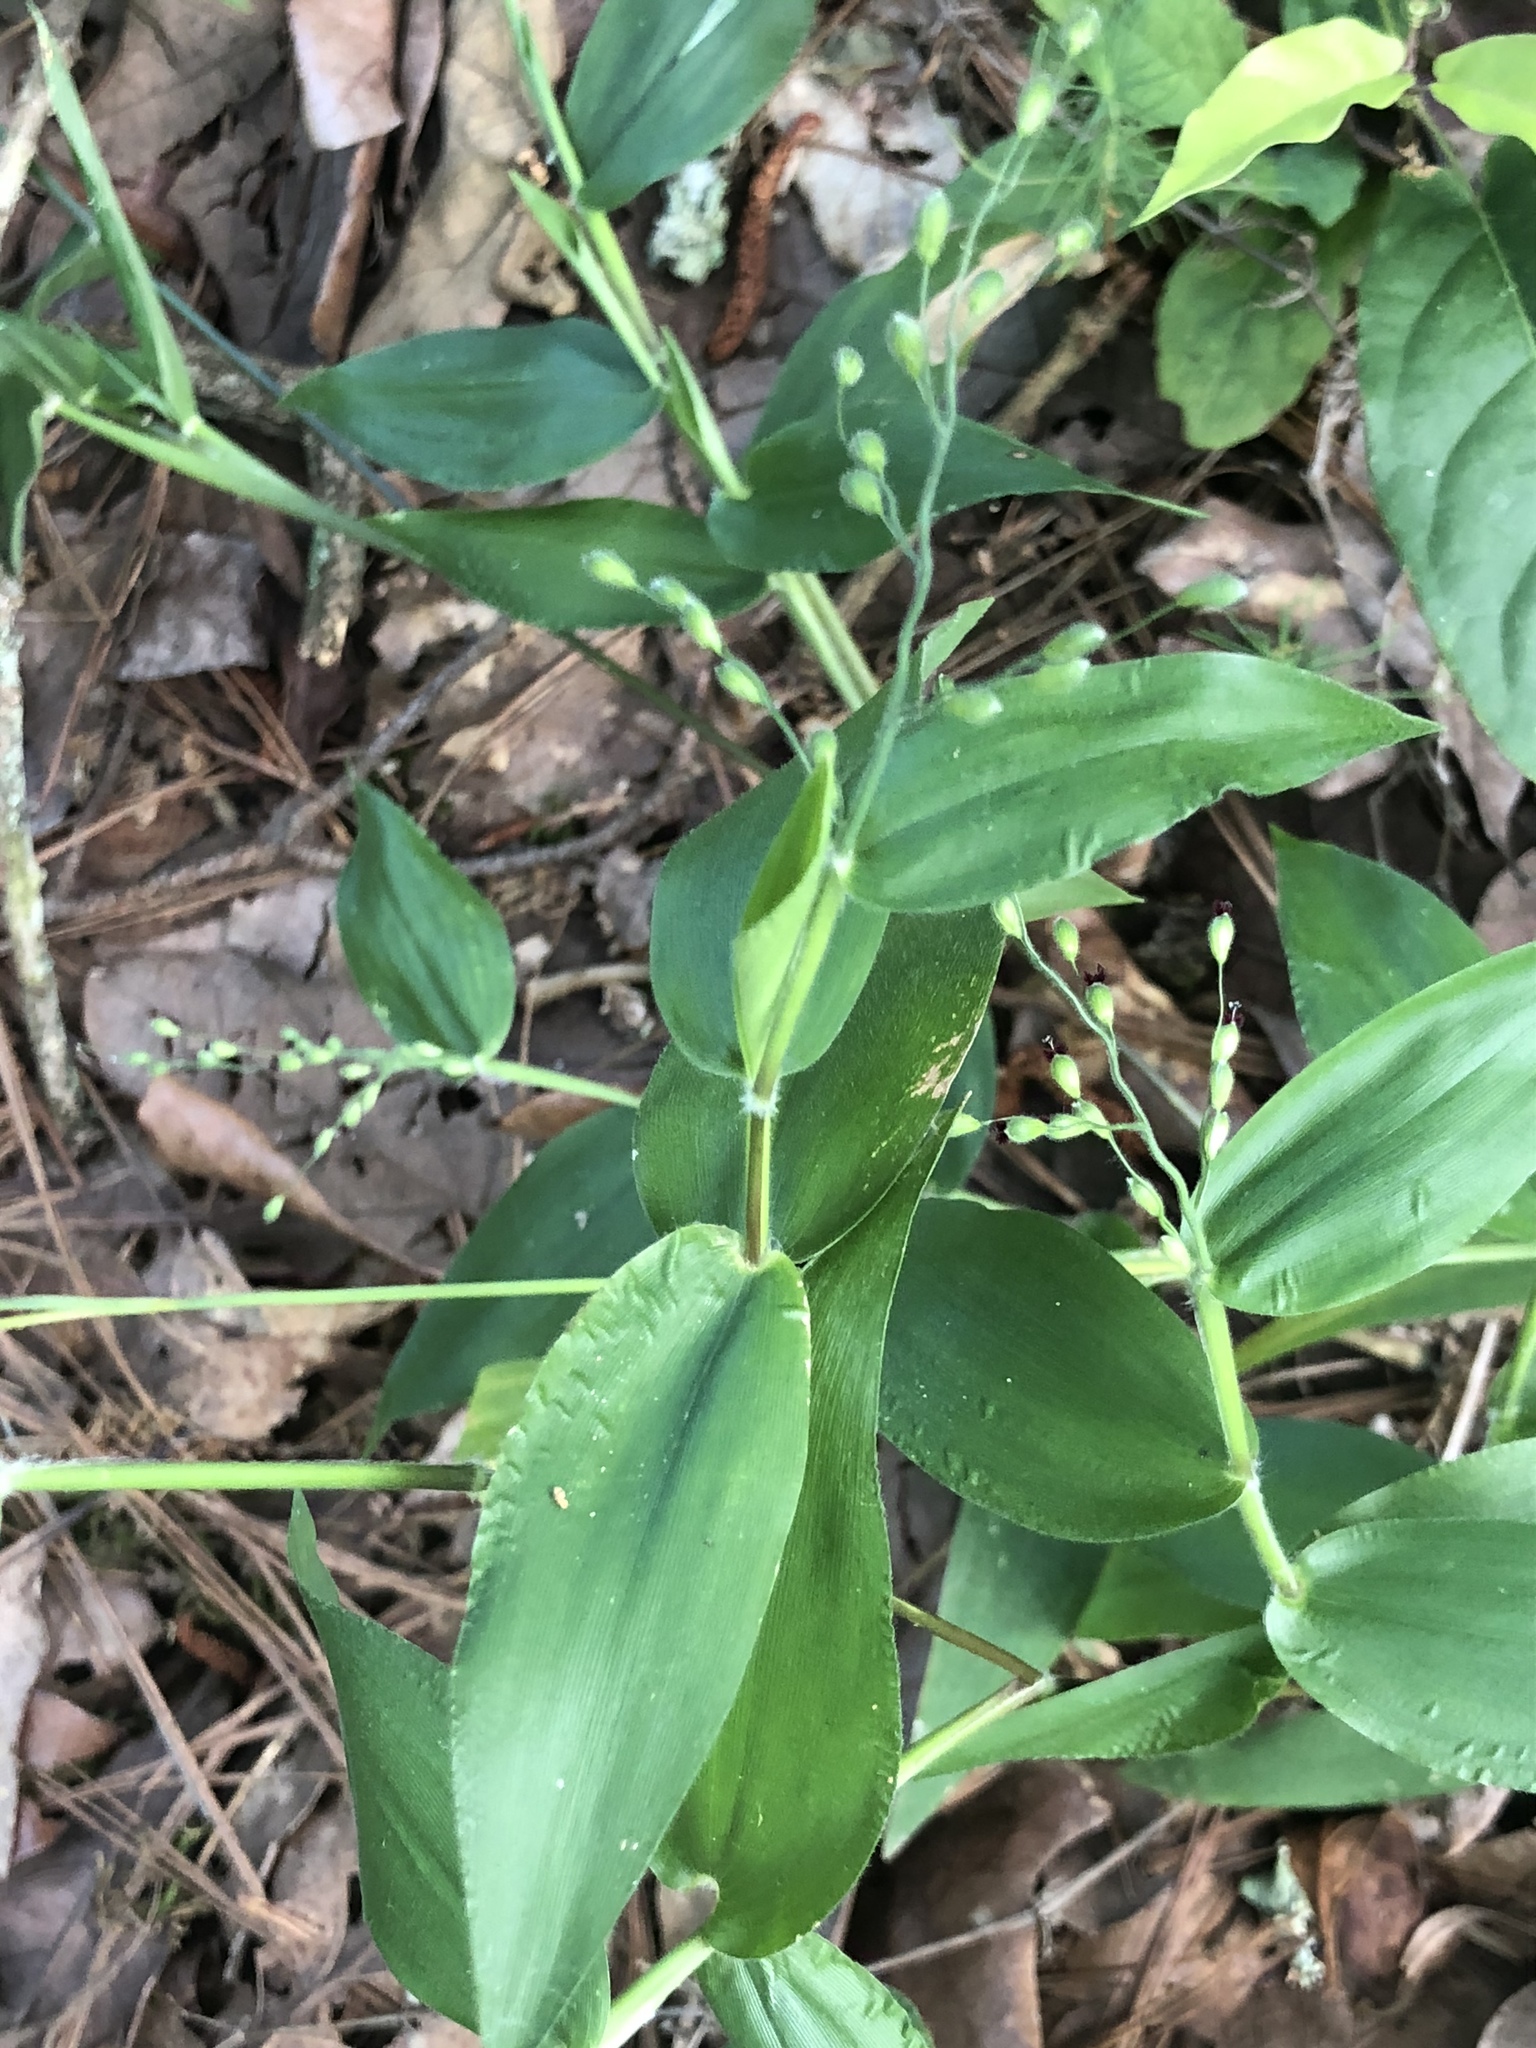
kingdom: Plantae
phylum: Tracheophyta
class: Liliopsida
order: Poales
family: Poaceae
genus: Dichanthelium
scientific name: Dichanthelium boscii
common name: Bosc's panic grass
